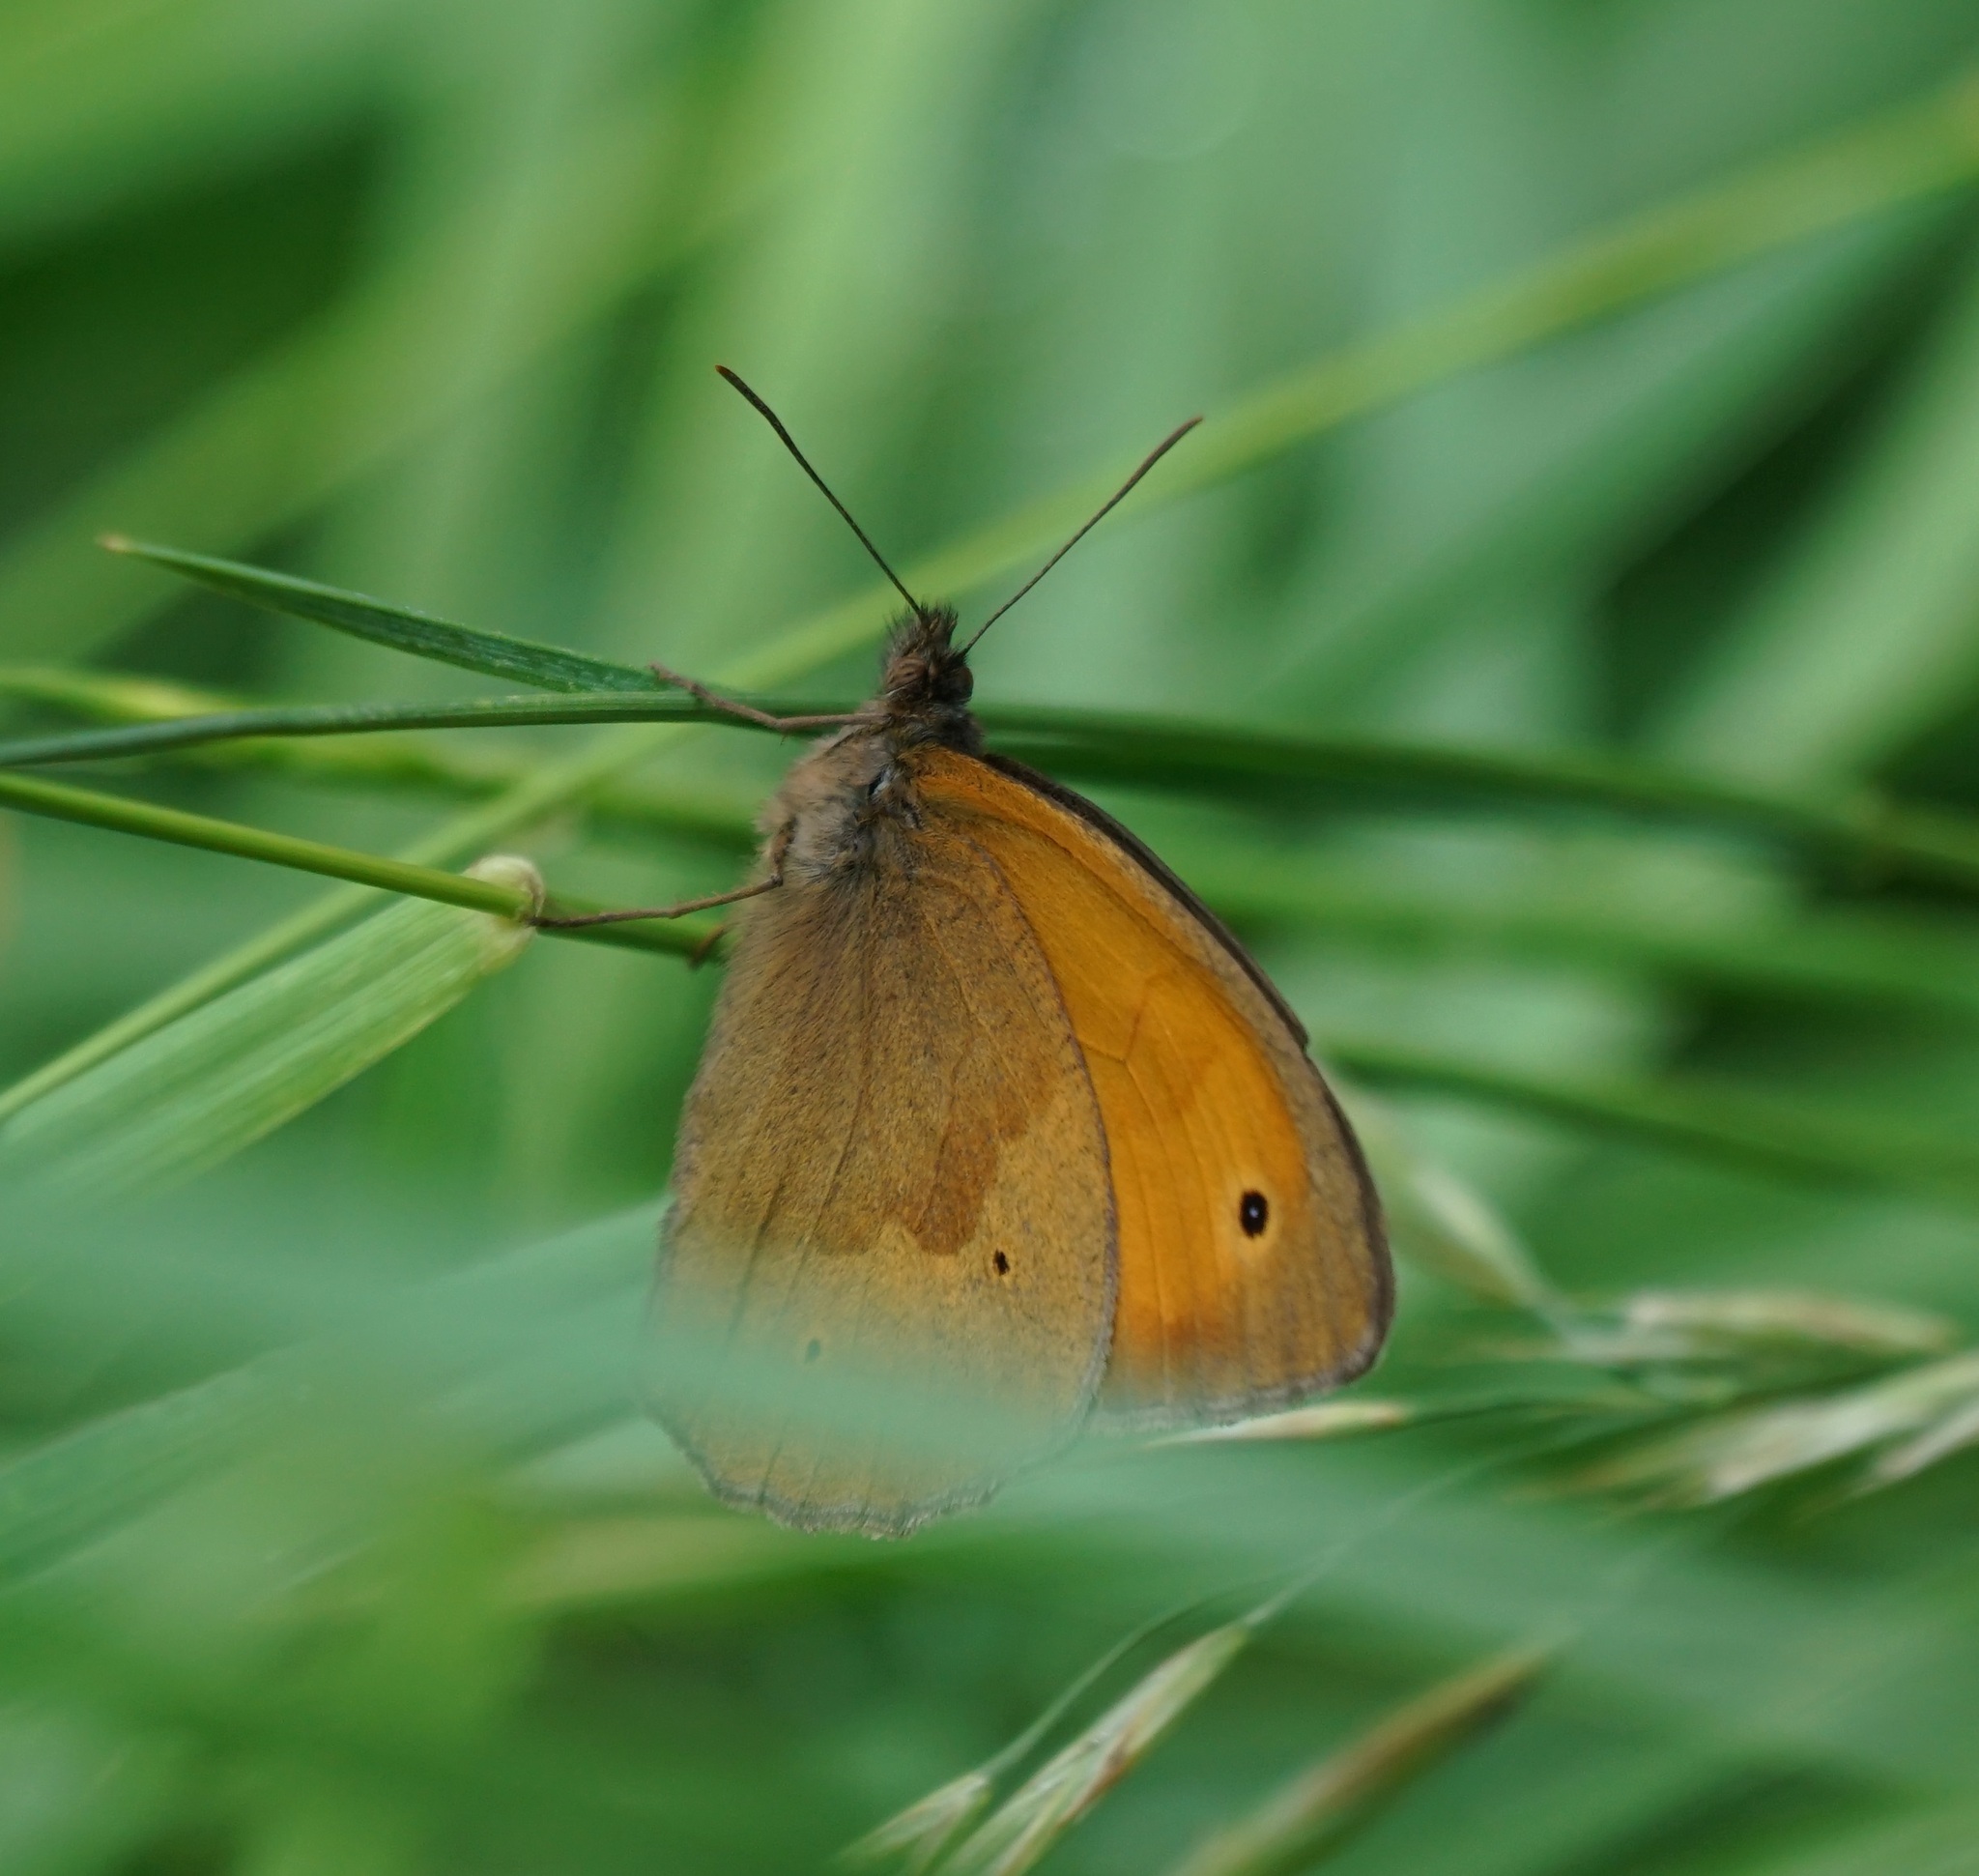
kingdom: Animalia
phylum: Arthropoda
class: Insecta
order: Lepidoptera
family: Nymphalidae
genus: Maniola
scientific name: Maniola jurtina
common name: Meadow brown
